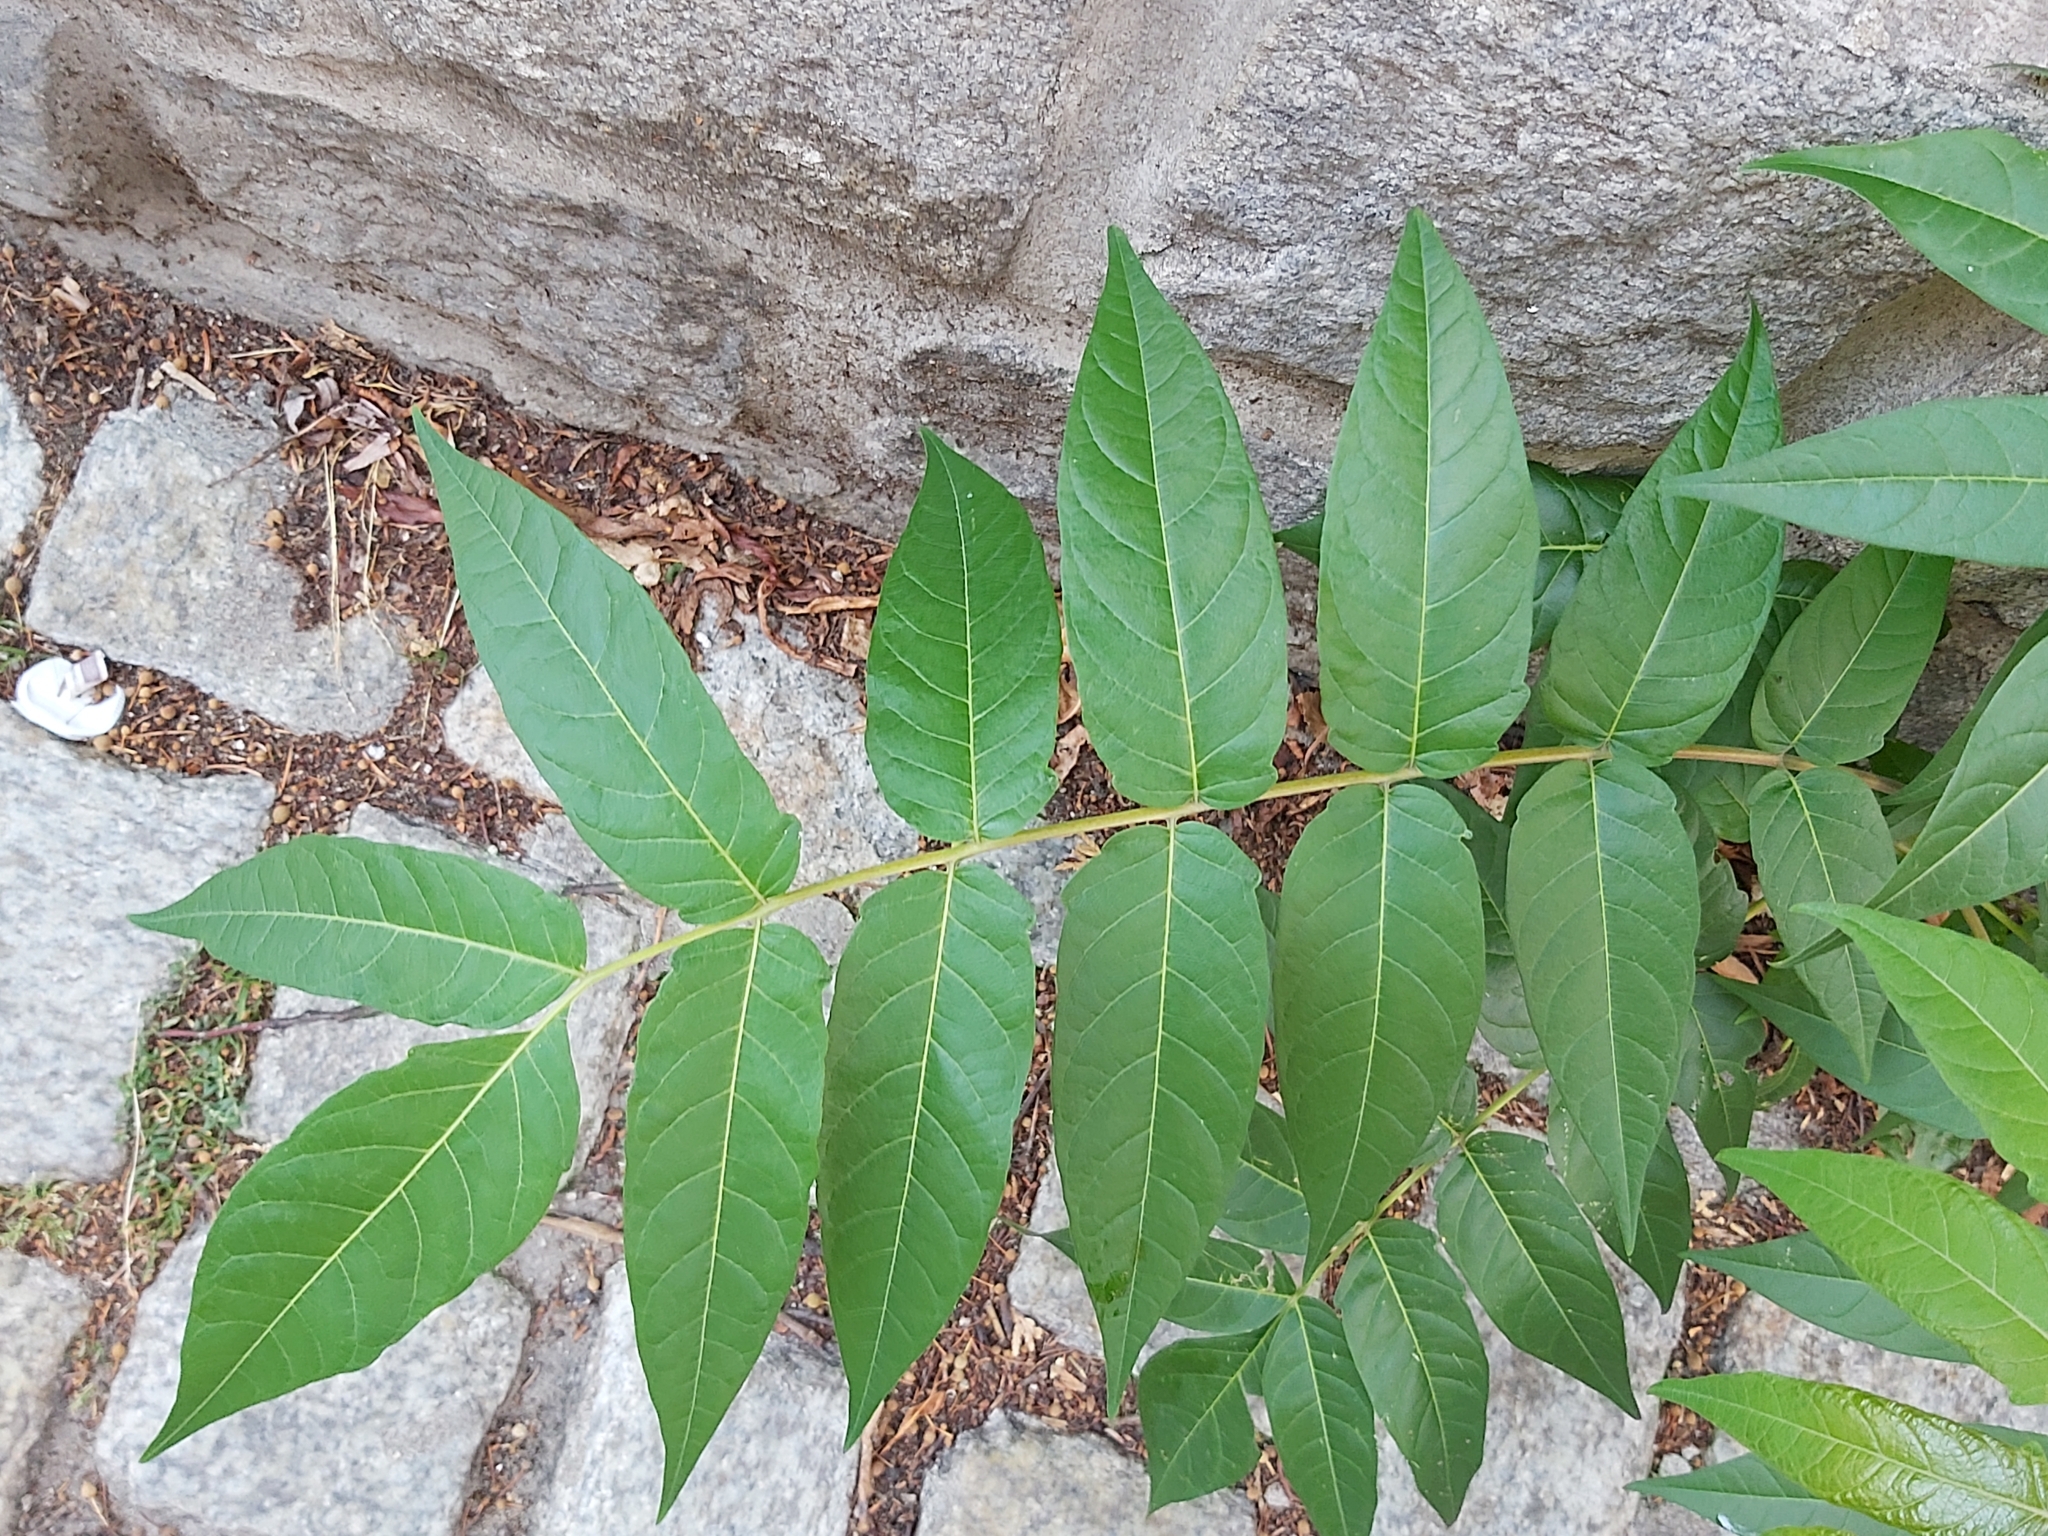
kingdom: Plantae
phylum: Tracheophyta
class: Magnoliopsida
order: Sapindales
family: Simaroubaceae
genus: Ailanthus
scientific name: Ailanthus altissima
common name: Tree-of-heaven
